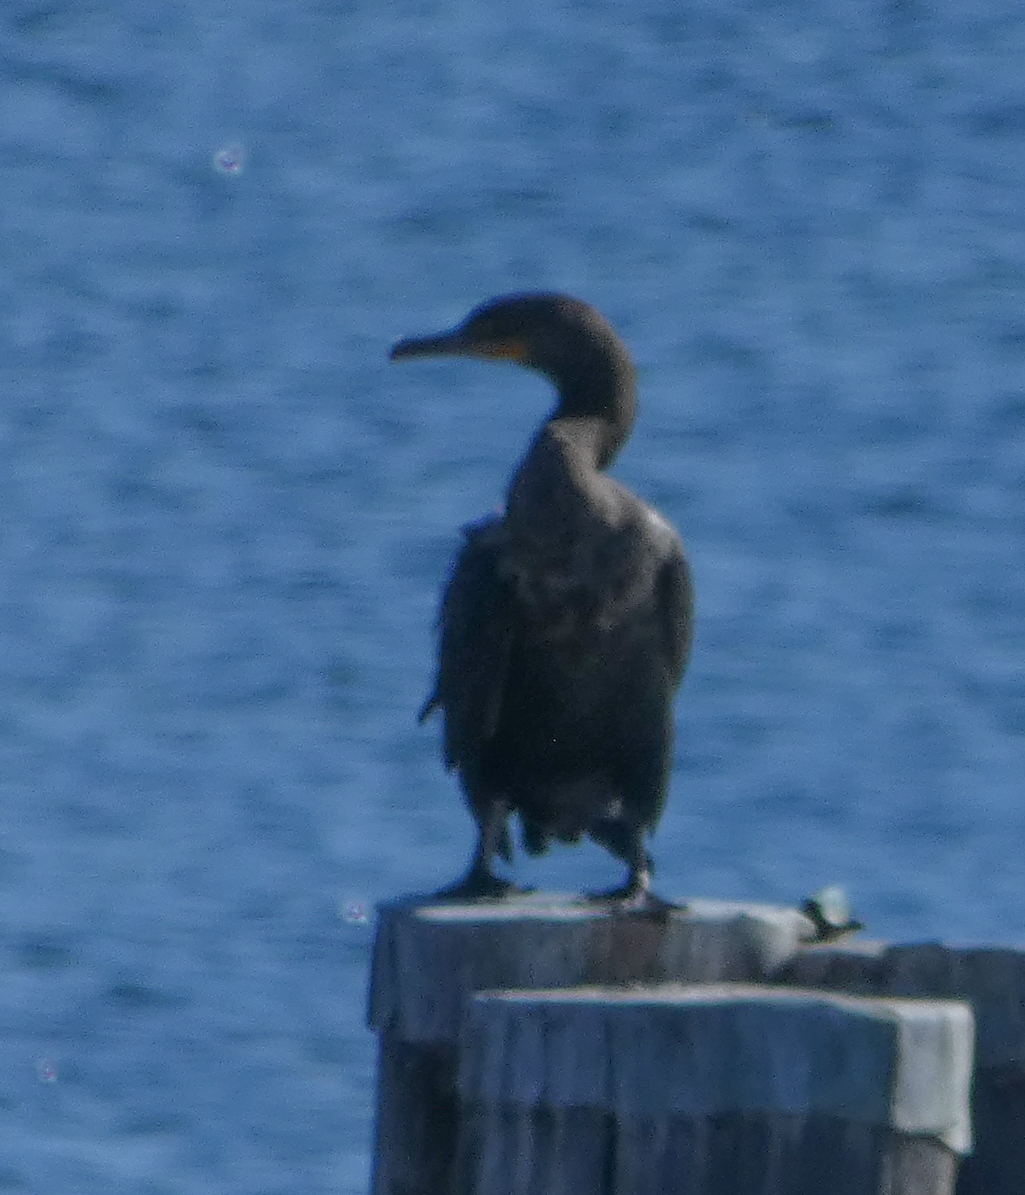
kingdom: Animalia
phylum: Chordata
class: Aves
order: Suliformes
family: Phalacrocoracidae
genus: Phalacrocorax
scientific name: Phalacrocorax auritus
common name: Double-crested cormorant
